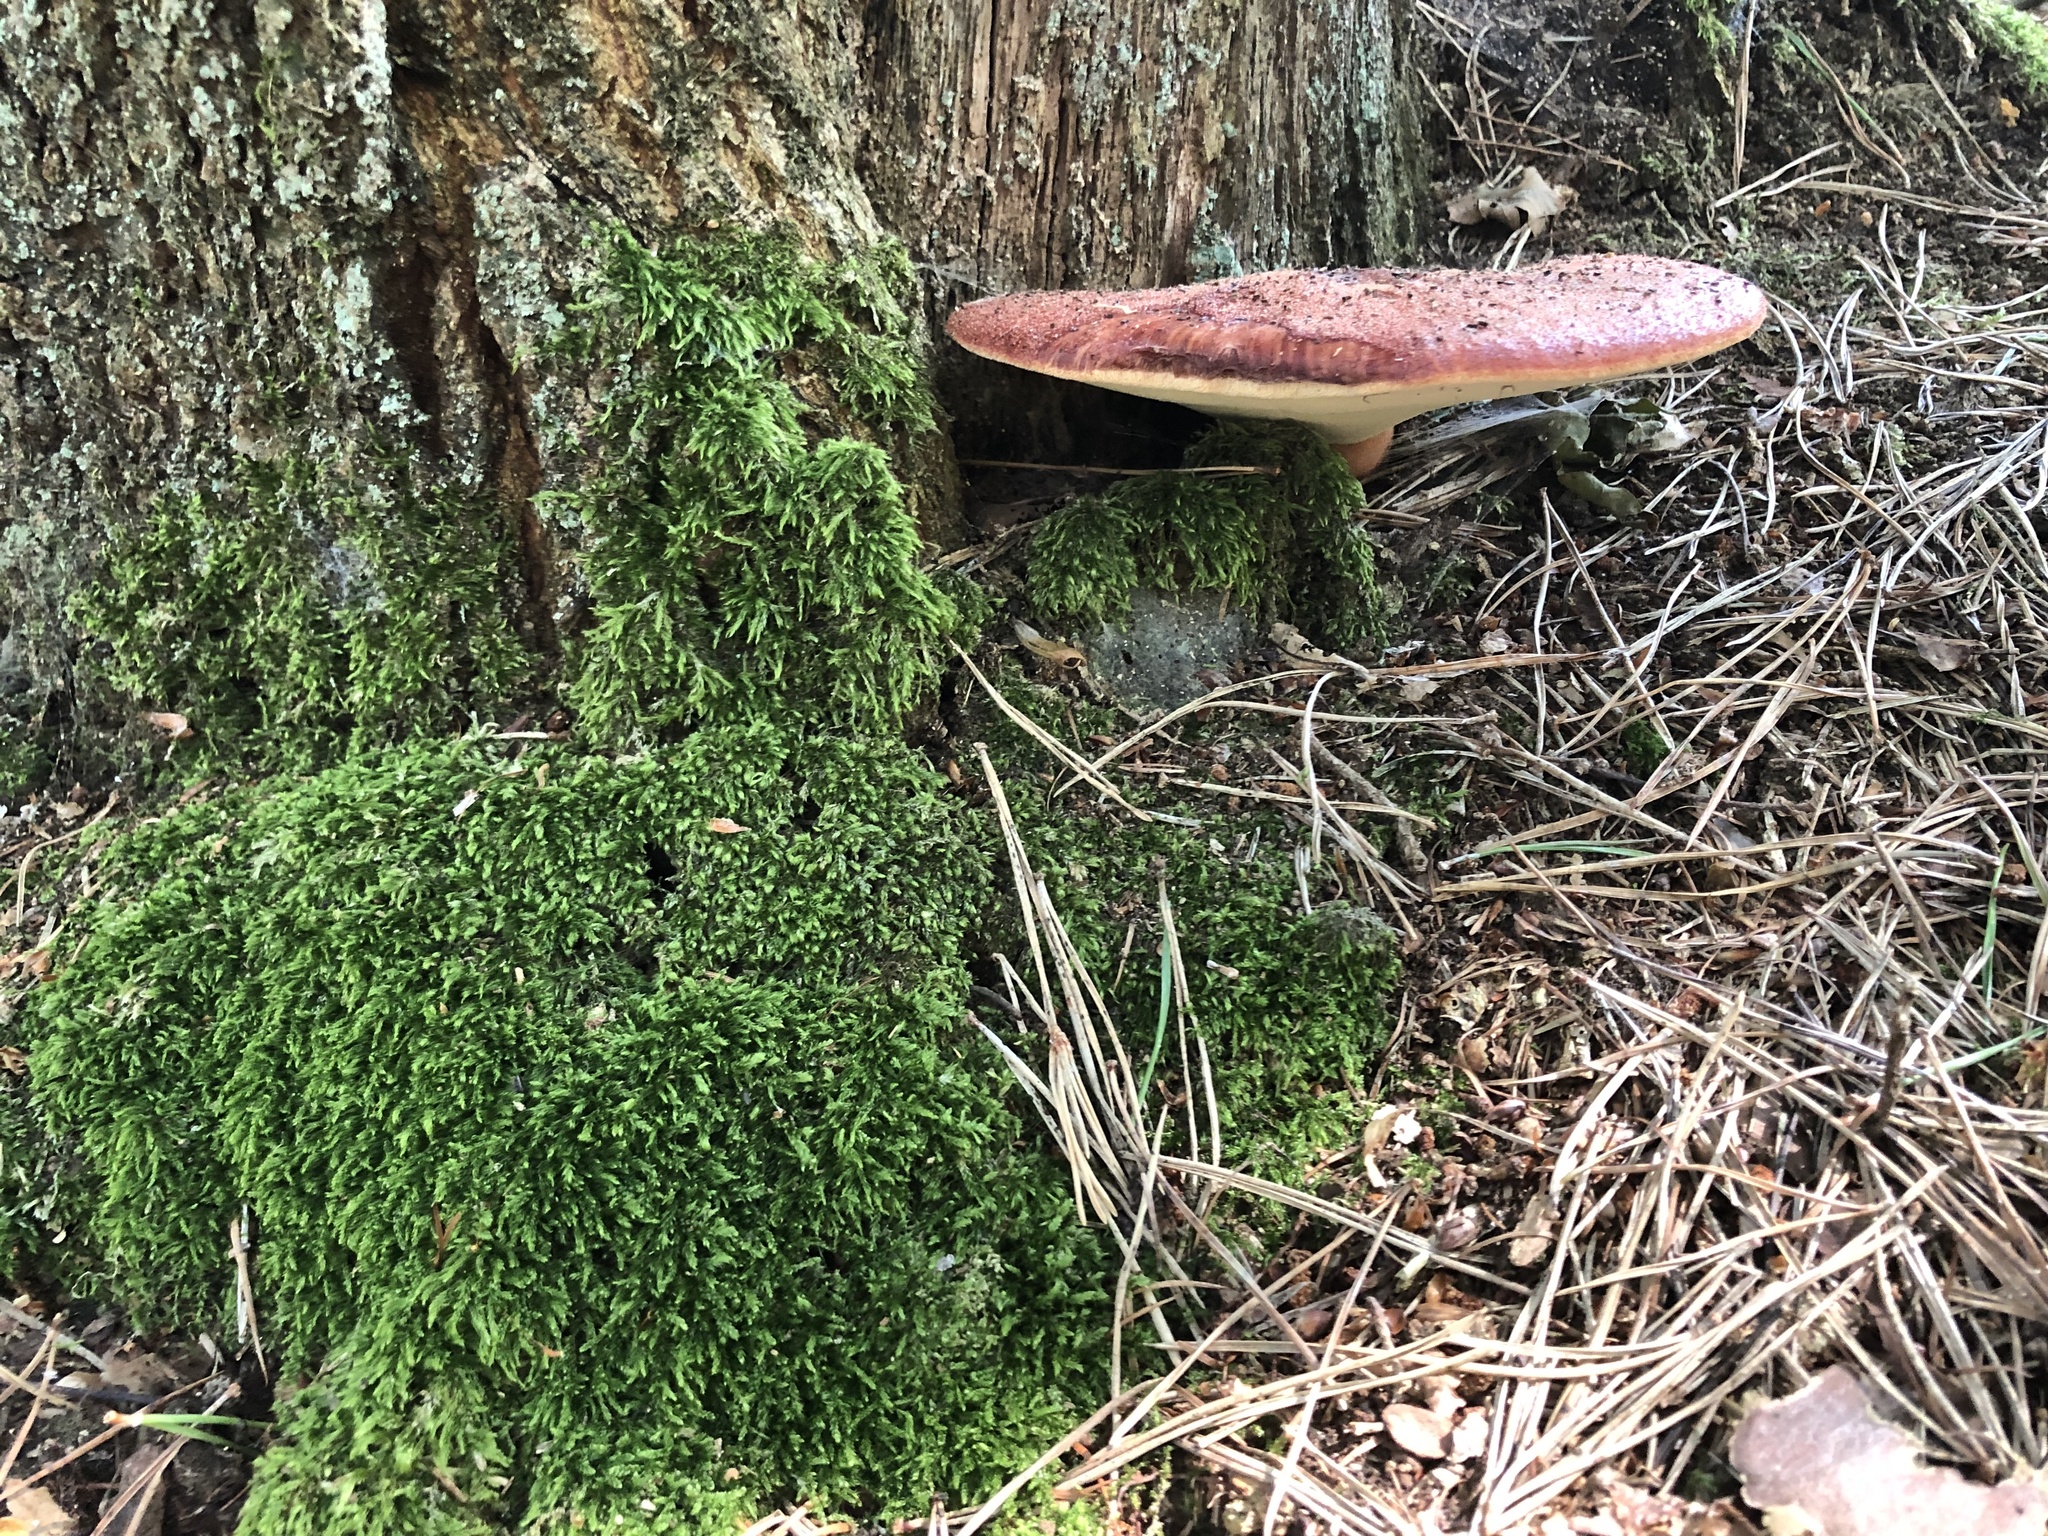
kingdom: Fungi
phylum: Basidiomycota
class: Agaricomycetes
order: Agaricales
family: Fistulinaceae
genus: Fistulina
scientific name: Fistulina hepatica
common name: Beef-steak fungus
